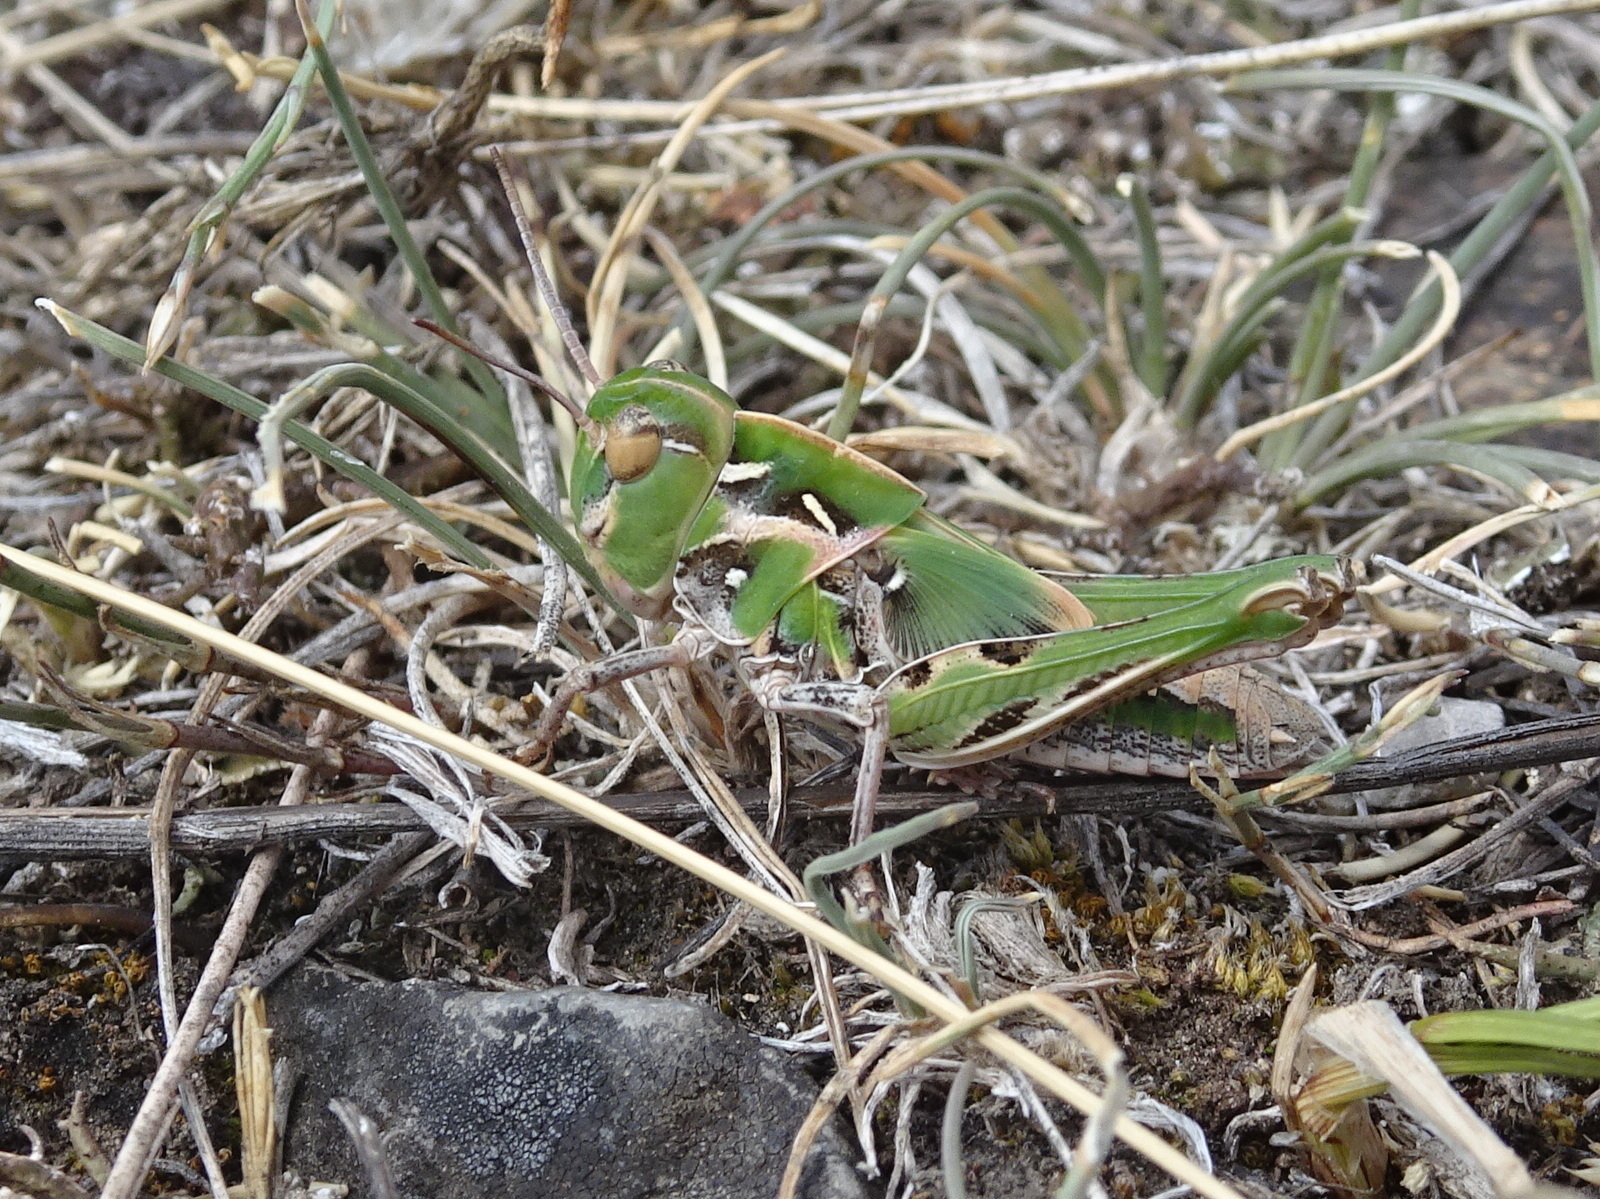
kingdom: Animalia
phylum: Arthropoda
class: Insecta
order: Orthoptera
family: Acrididae
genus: Oedaleus
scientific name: Oedaleus decorus
